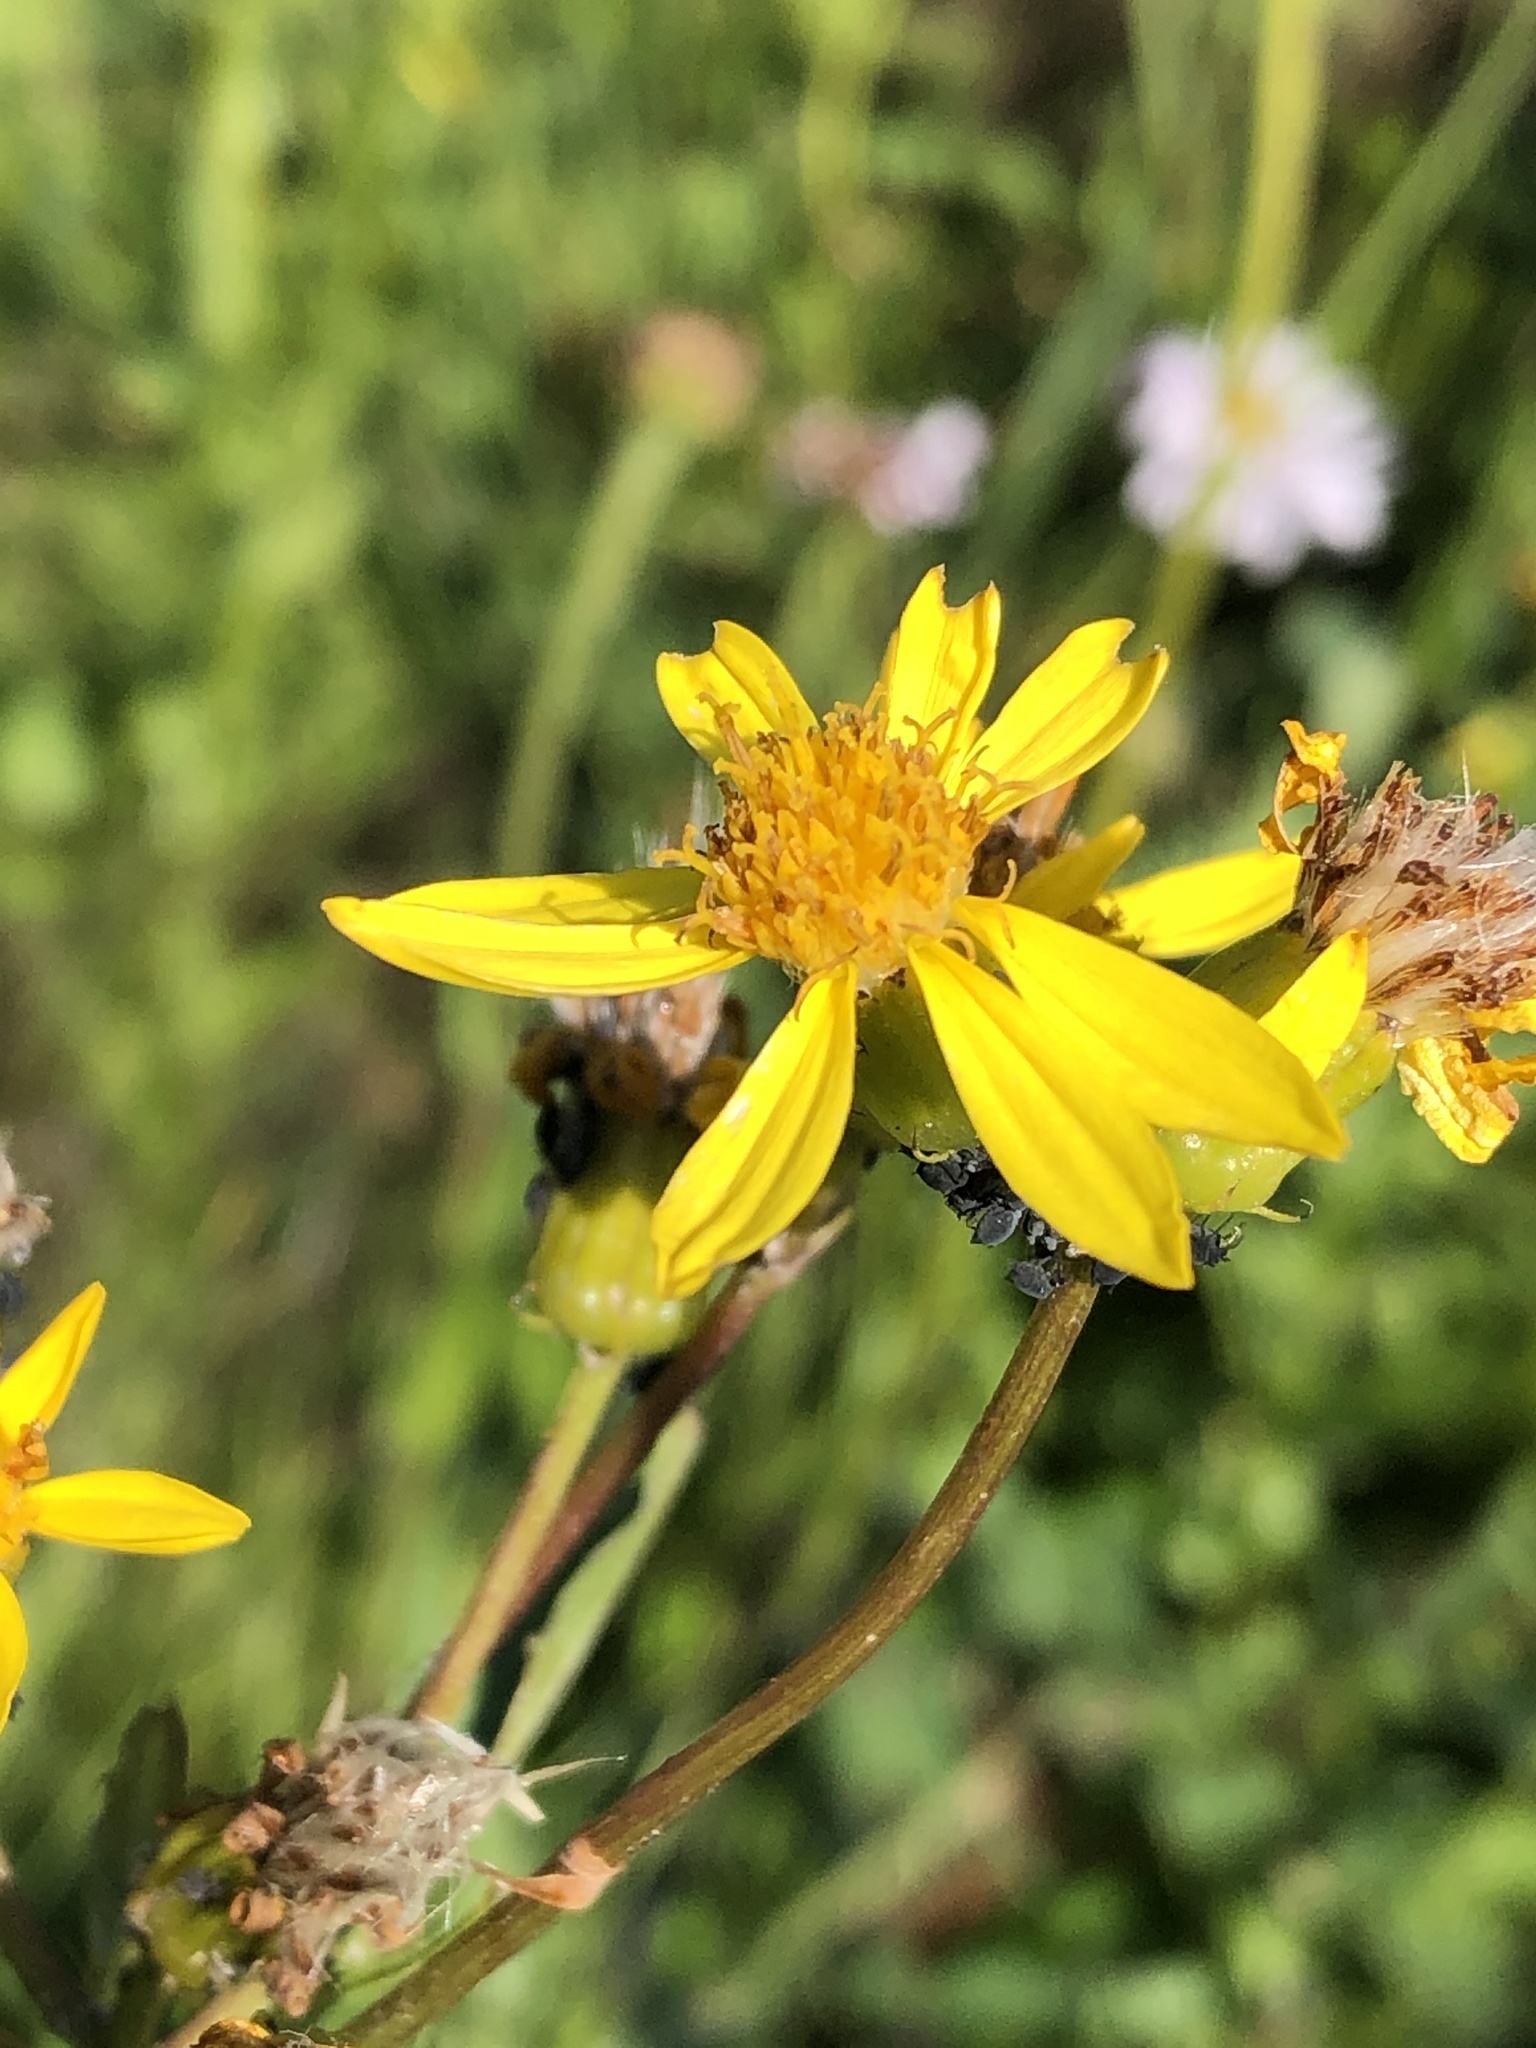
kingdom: Plantae
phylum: Tracheophyta
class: Magnoliopsida
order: Asterales
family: Asteraceae
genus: Senecio
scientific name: Senecio triangularis
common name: Arrowleaf butterweed
